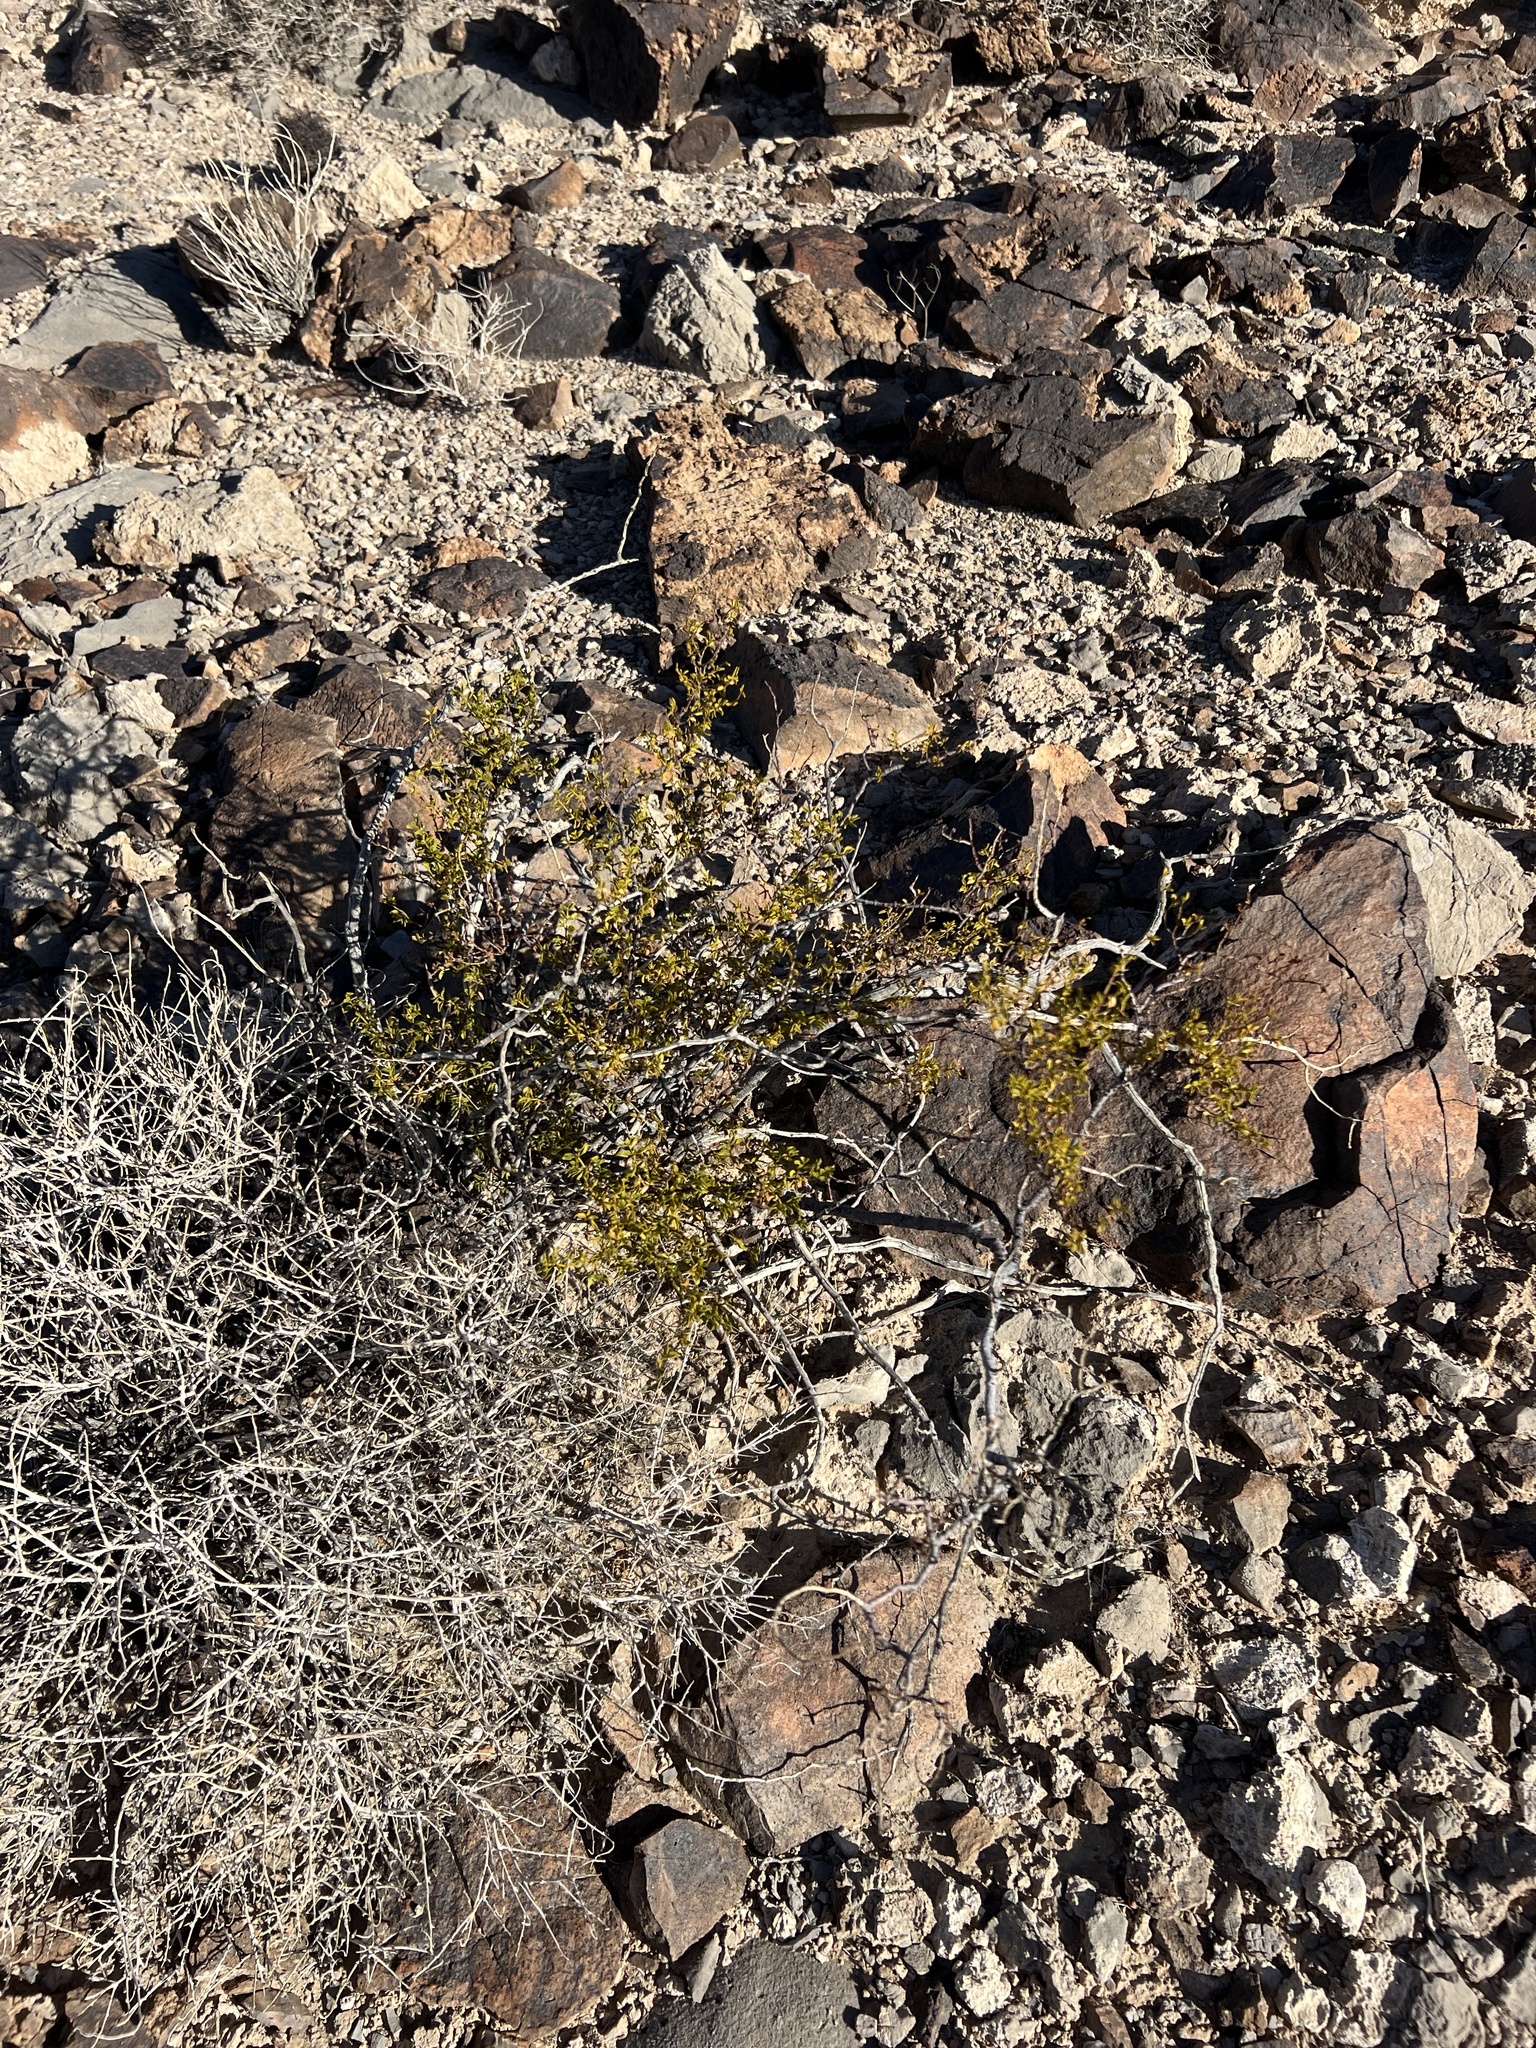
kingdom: Plantae
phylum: Tracheophyta
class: Magnoliopsida
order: Zygophyllales
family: Zygophyllaceae
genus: Larrea
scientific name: Larrea tridentata
